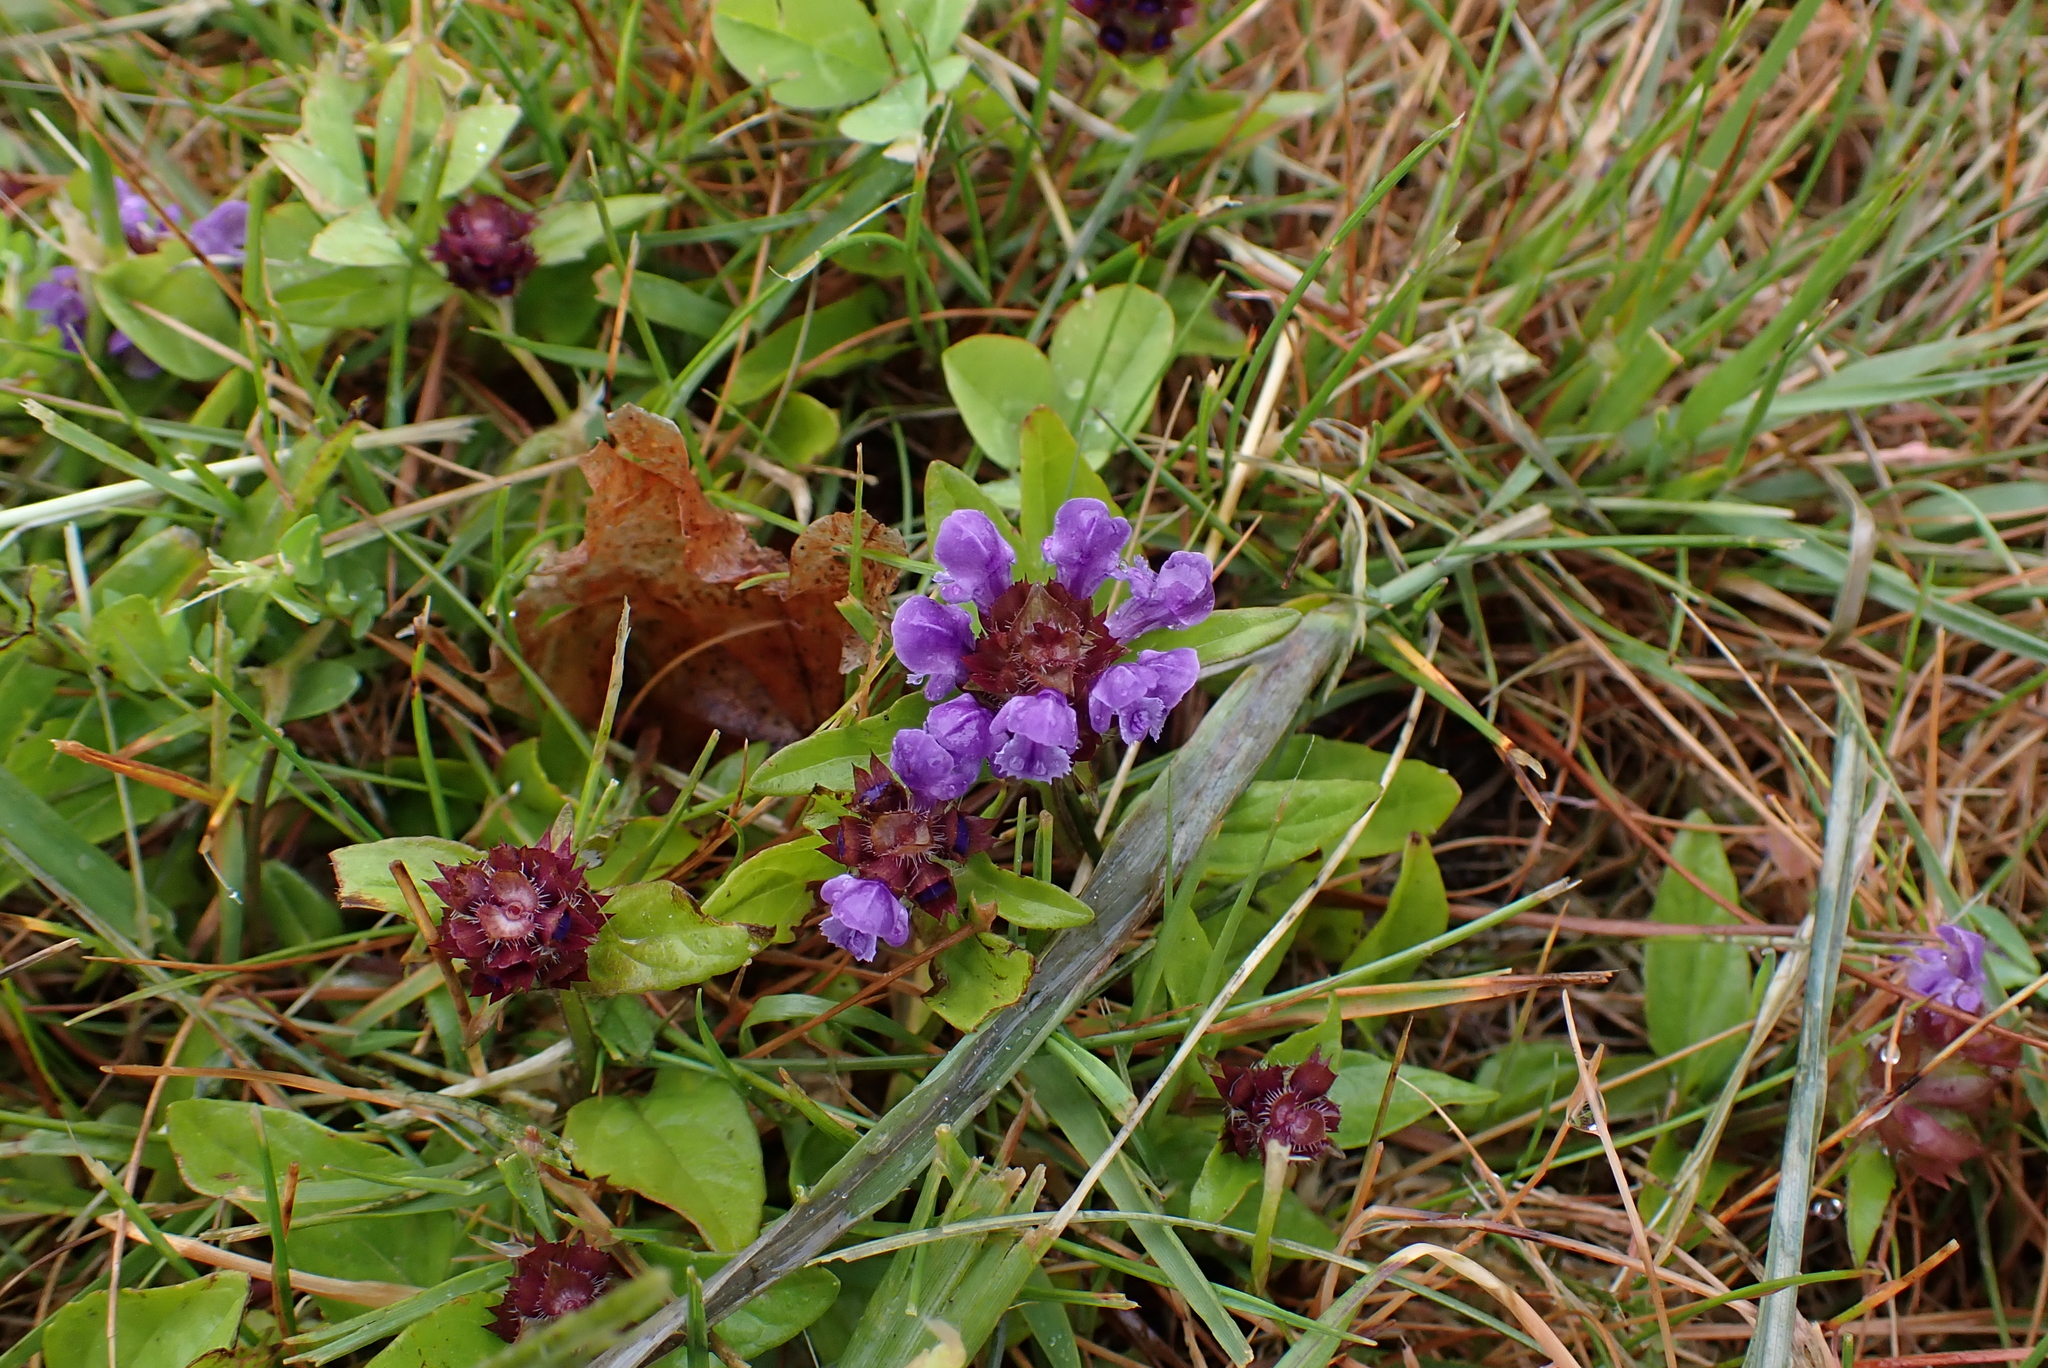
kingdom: Plantae
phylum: Tracheophyta
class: Magnoliopsida
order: Lamiales
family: Lamiaceae
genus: Prunella
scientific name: Prunella vulgaris
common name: Heal-all
